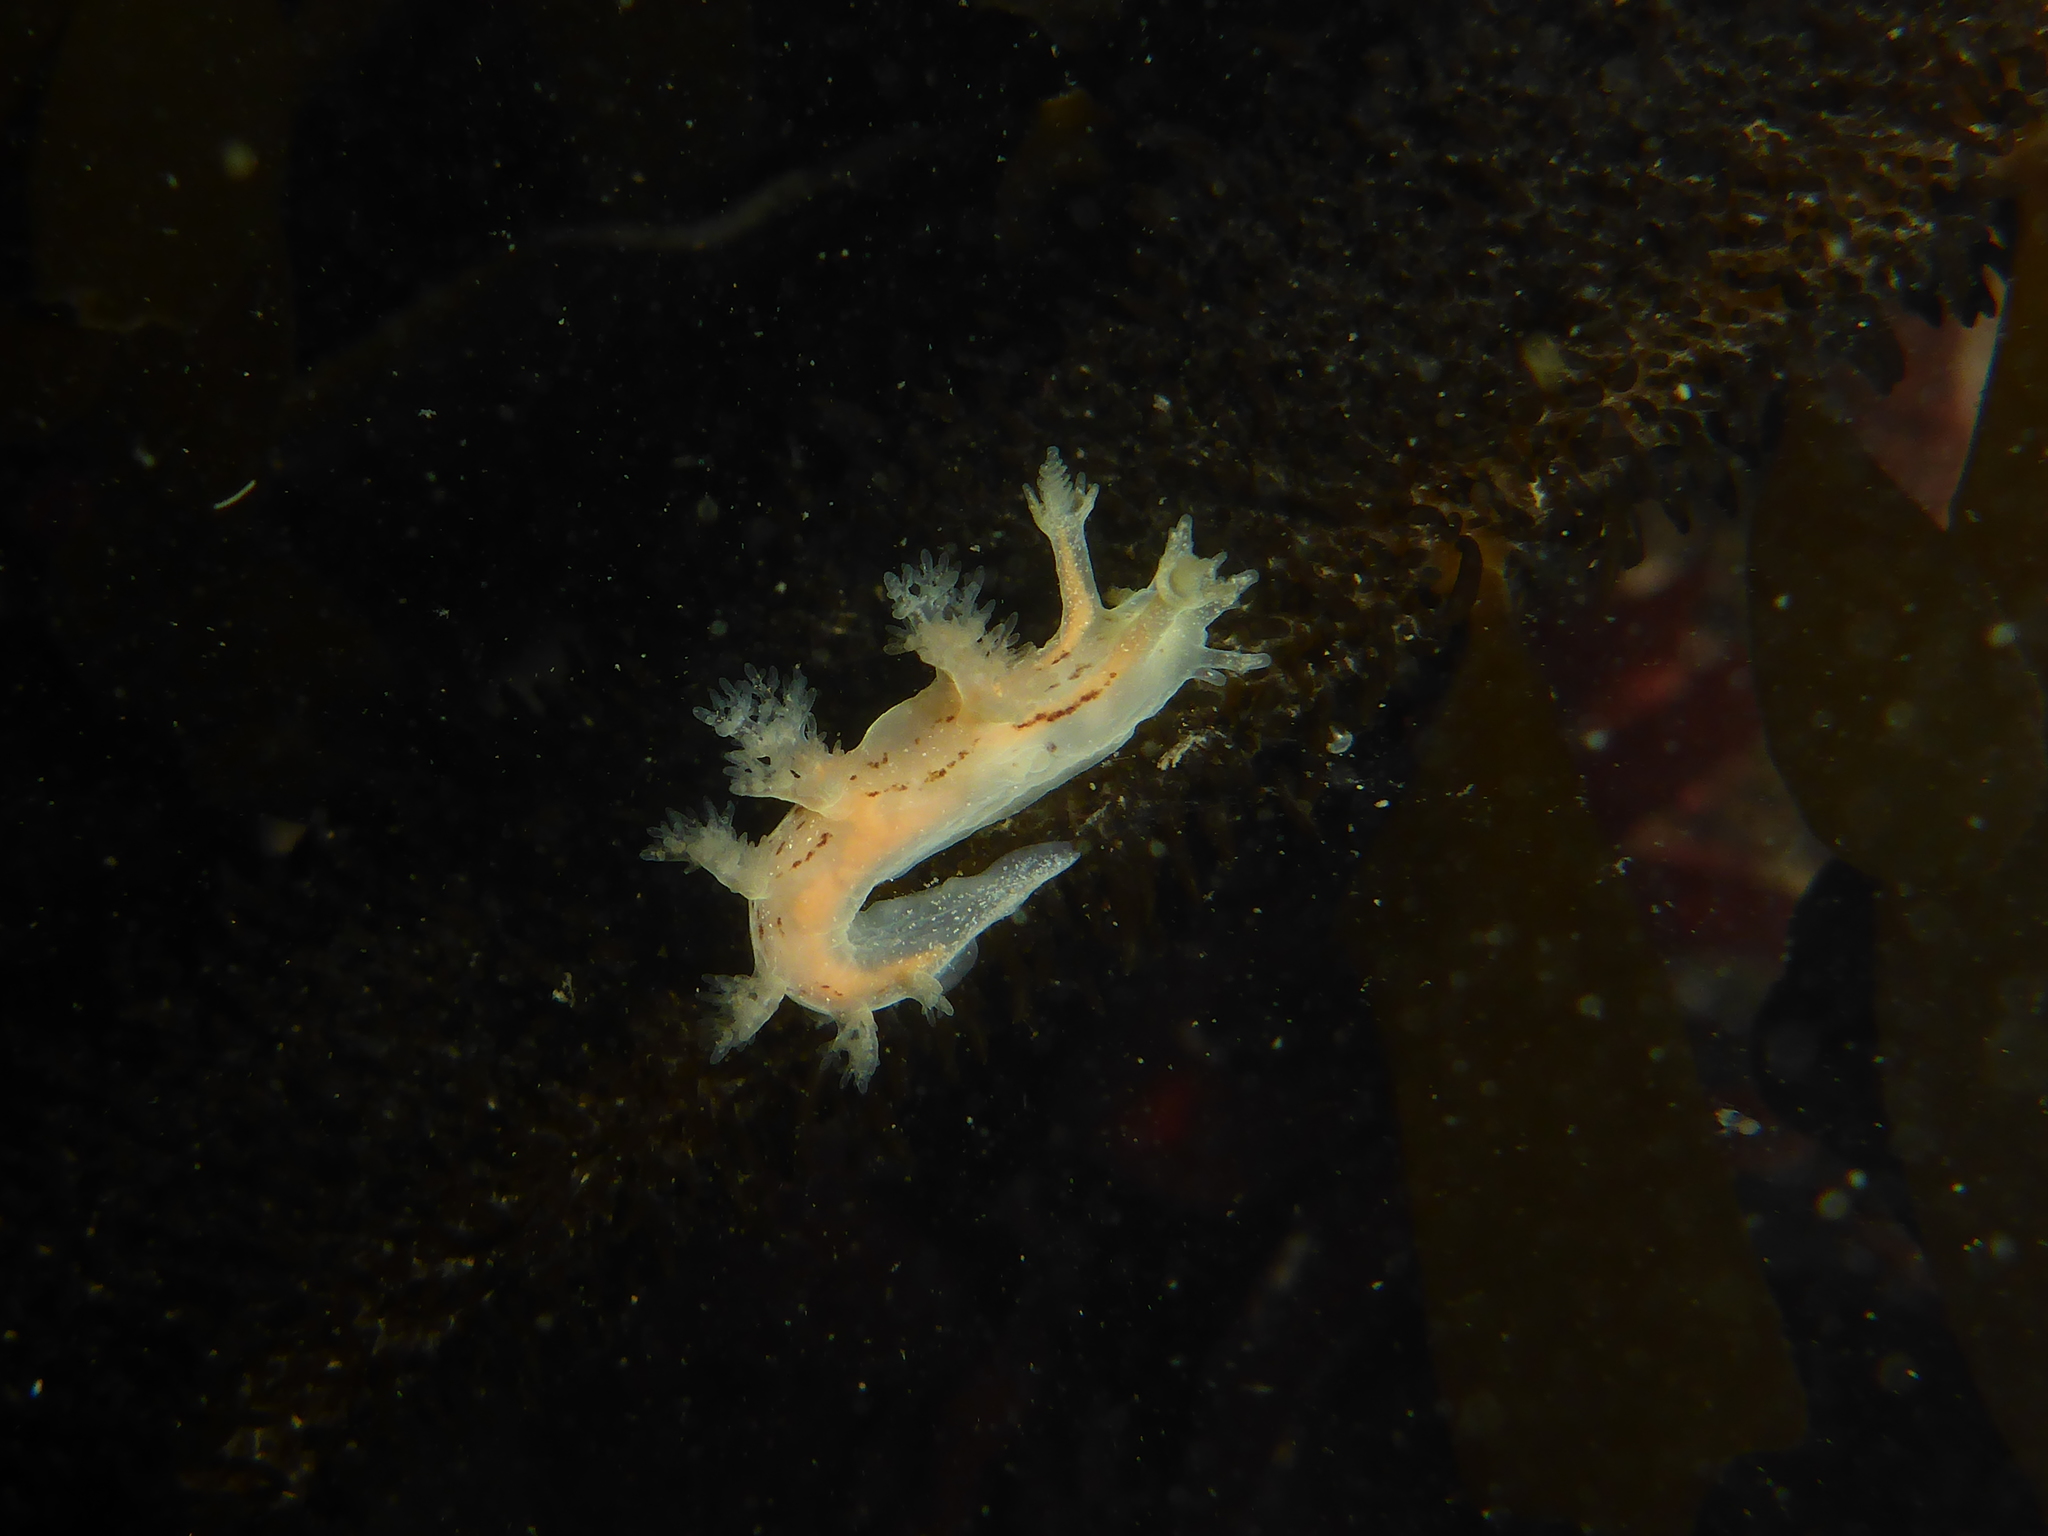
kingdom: Animalia
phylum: Mollusca
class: Gastropoda
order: Nudibranchia
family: Dendronotidae
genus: Dendronotus
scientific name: Dendronotus subramosus
